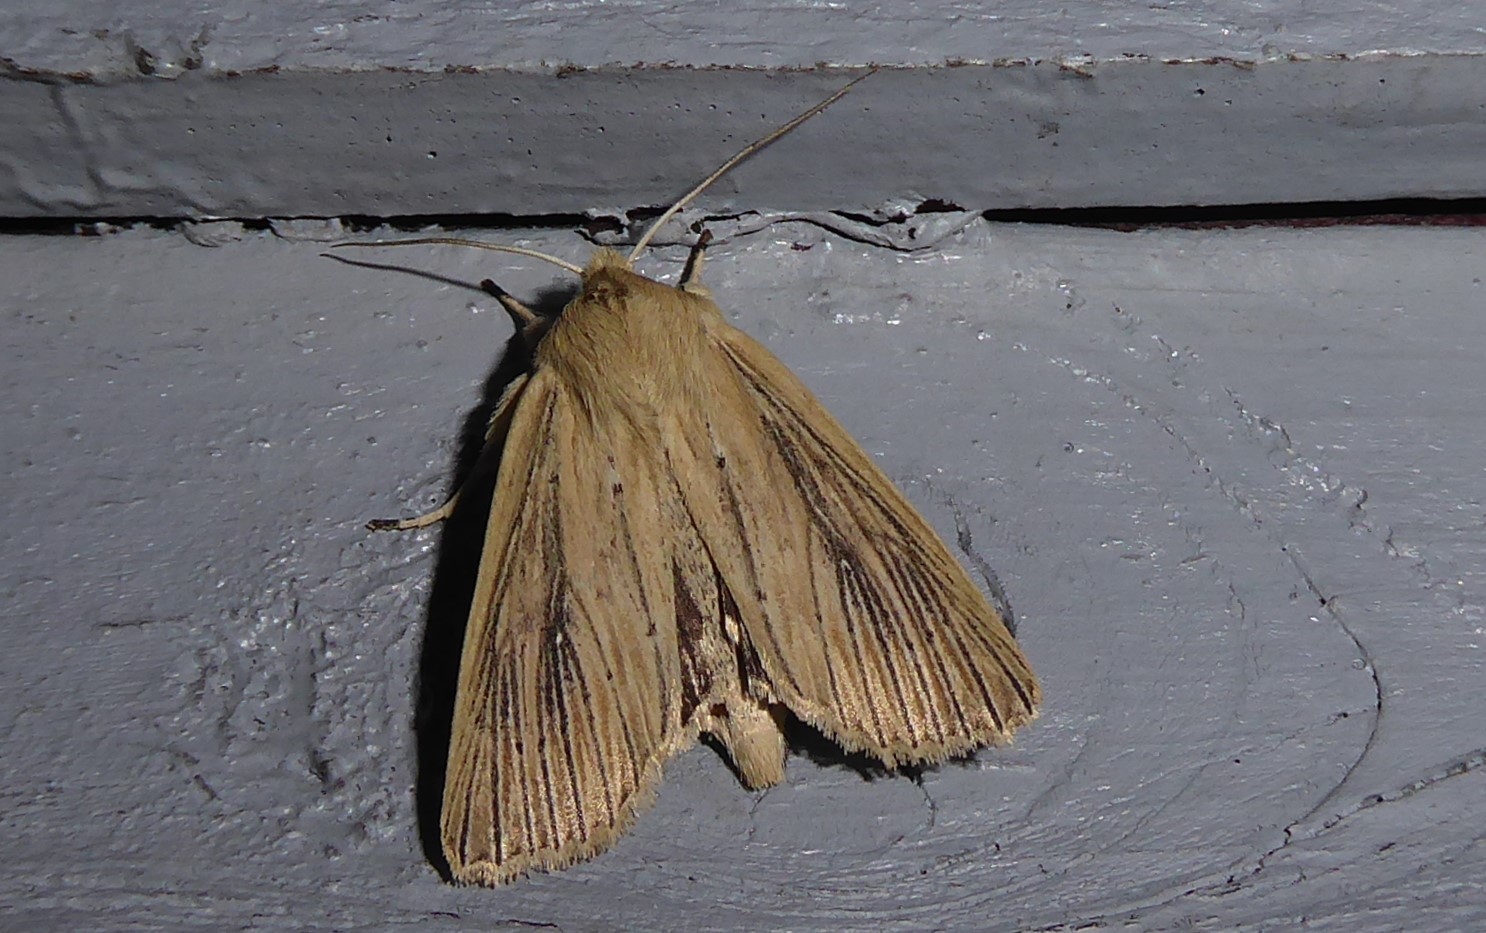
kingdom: Animalia
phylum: Arthropoda
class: Insecta
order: Lepidoptera
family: Noctuidae
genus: Ichneutica
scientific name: Ichneutica arotis
